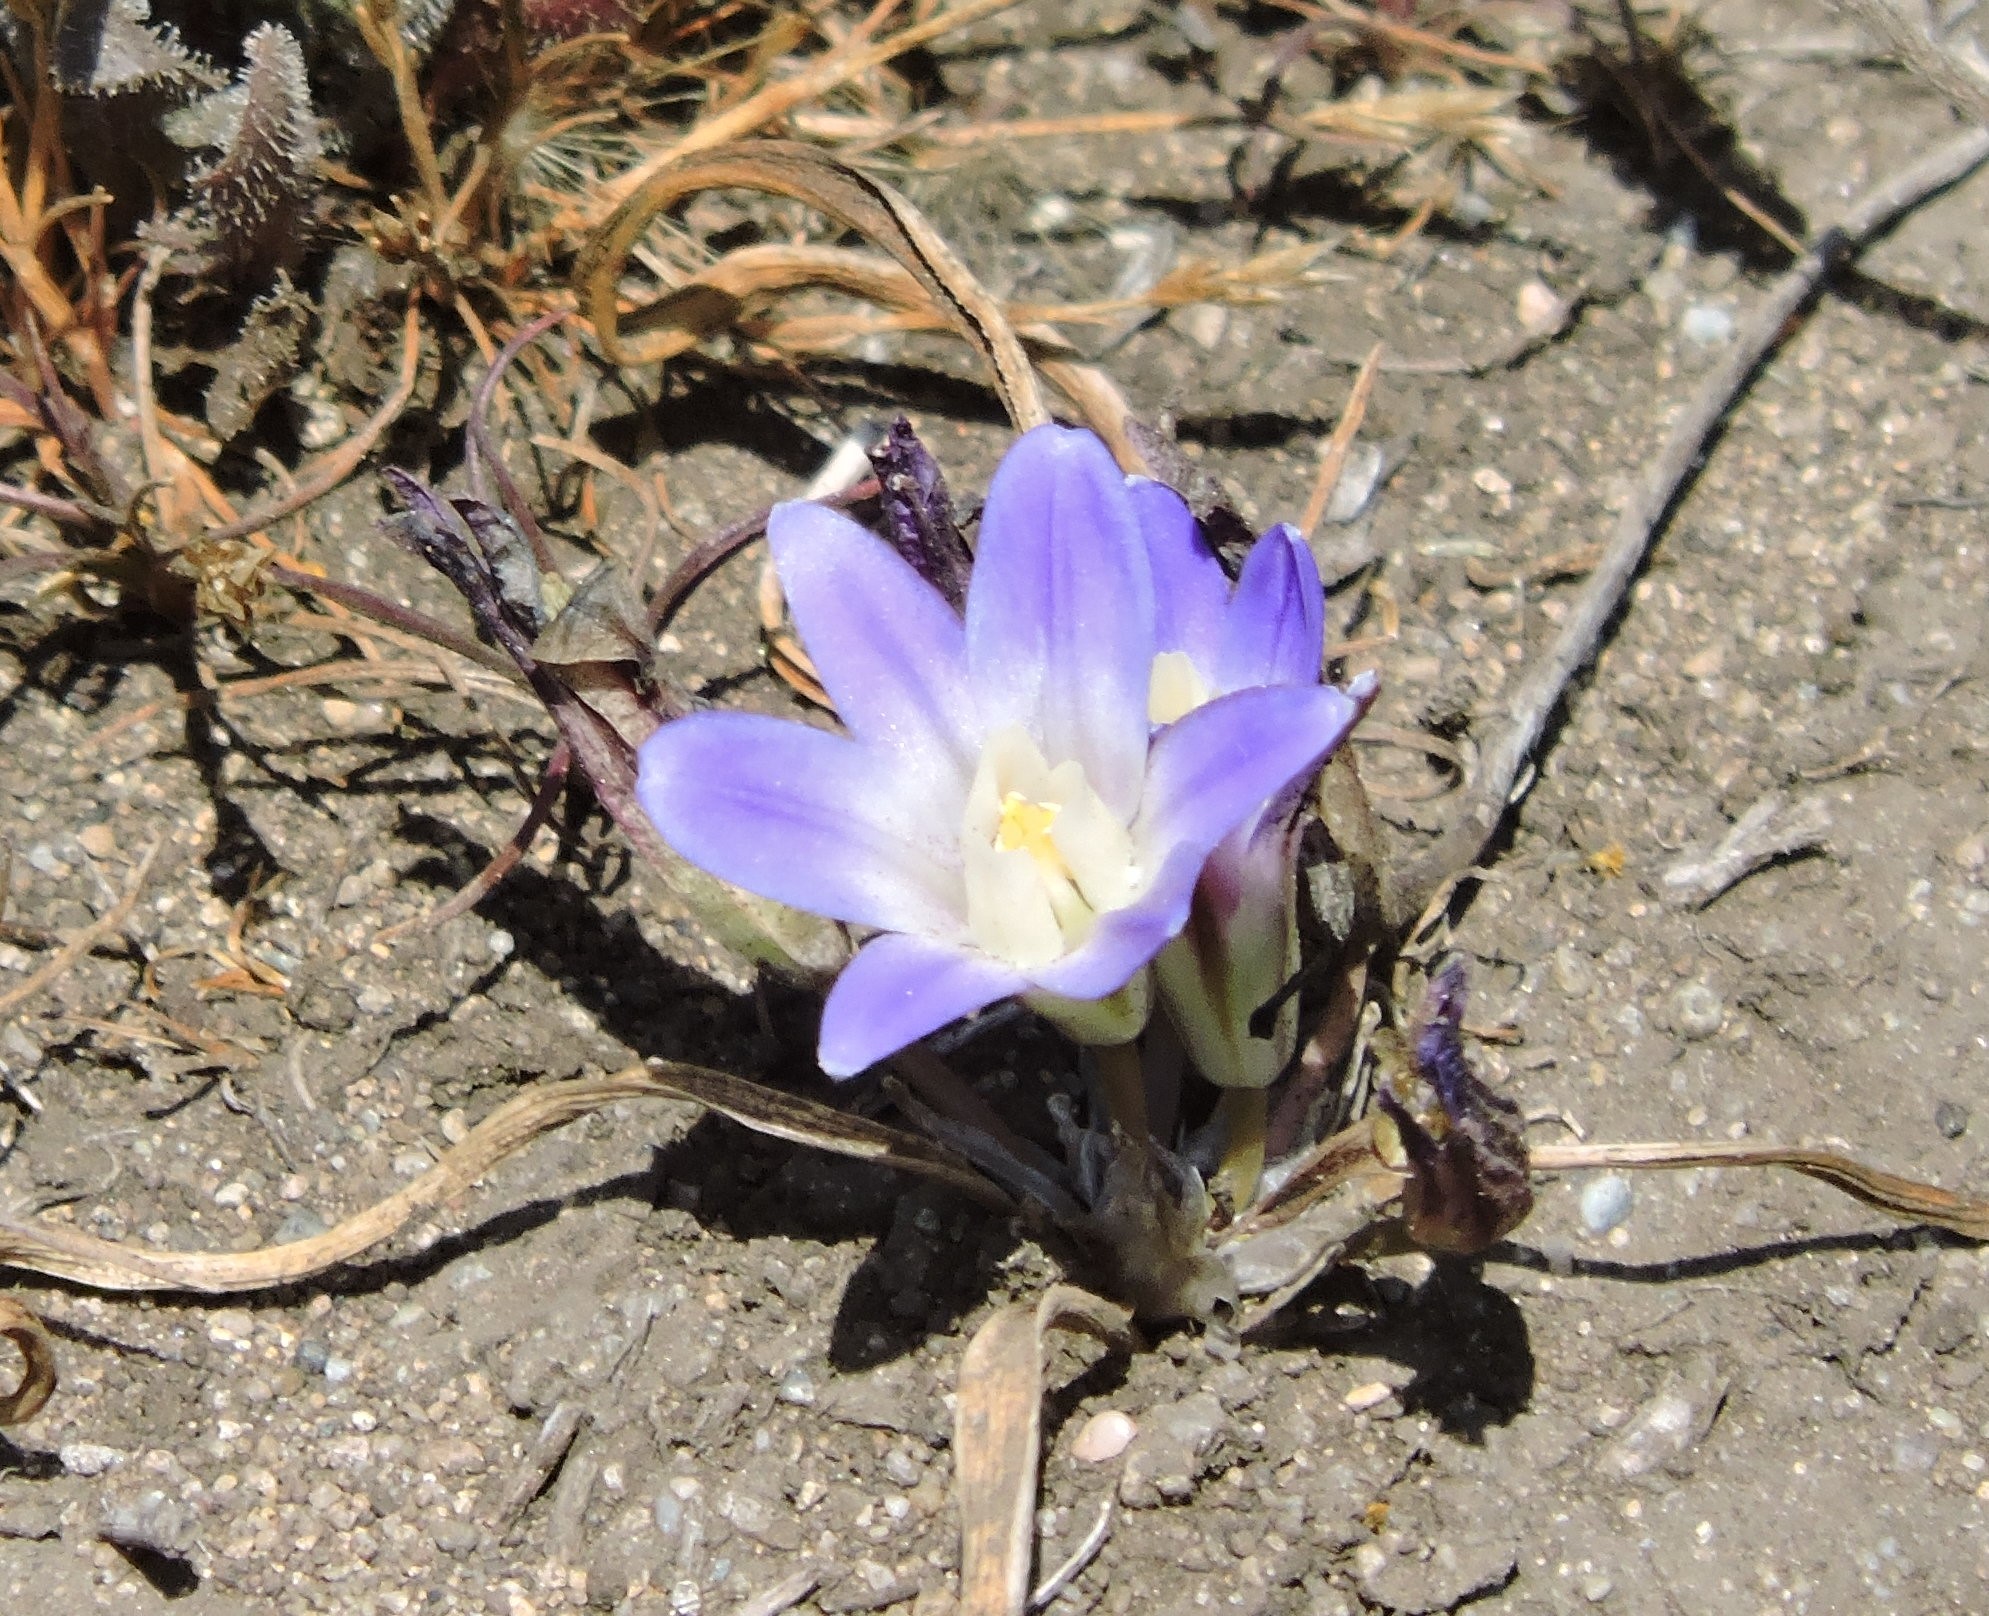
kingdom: Plantae
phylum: Tracheophyta
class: Liliopsida
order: Asparagales
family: Asparagaceae
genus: Brodiaea
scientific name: Brodiaea terrestris
